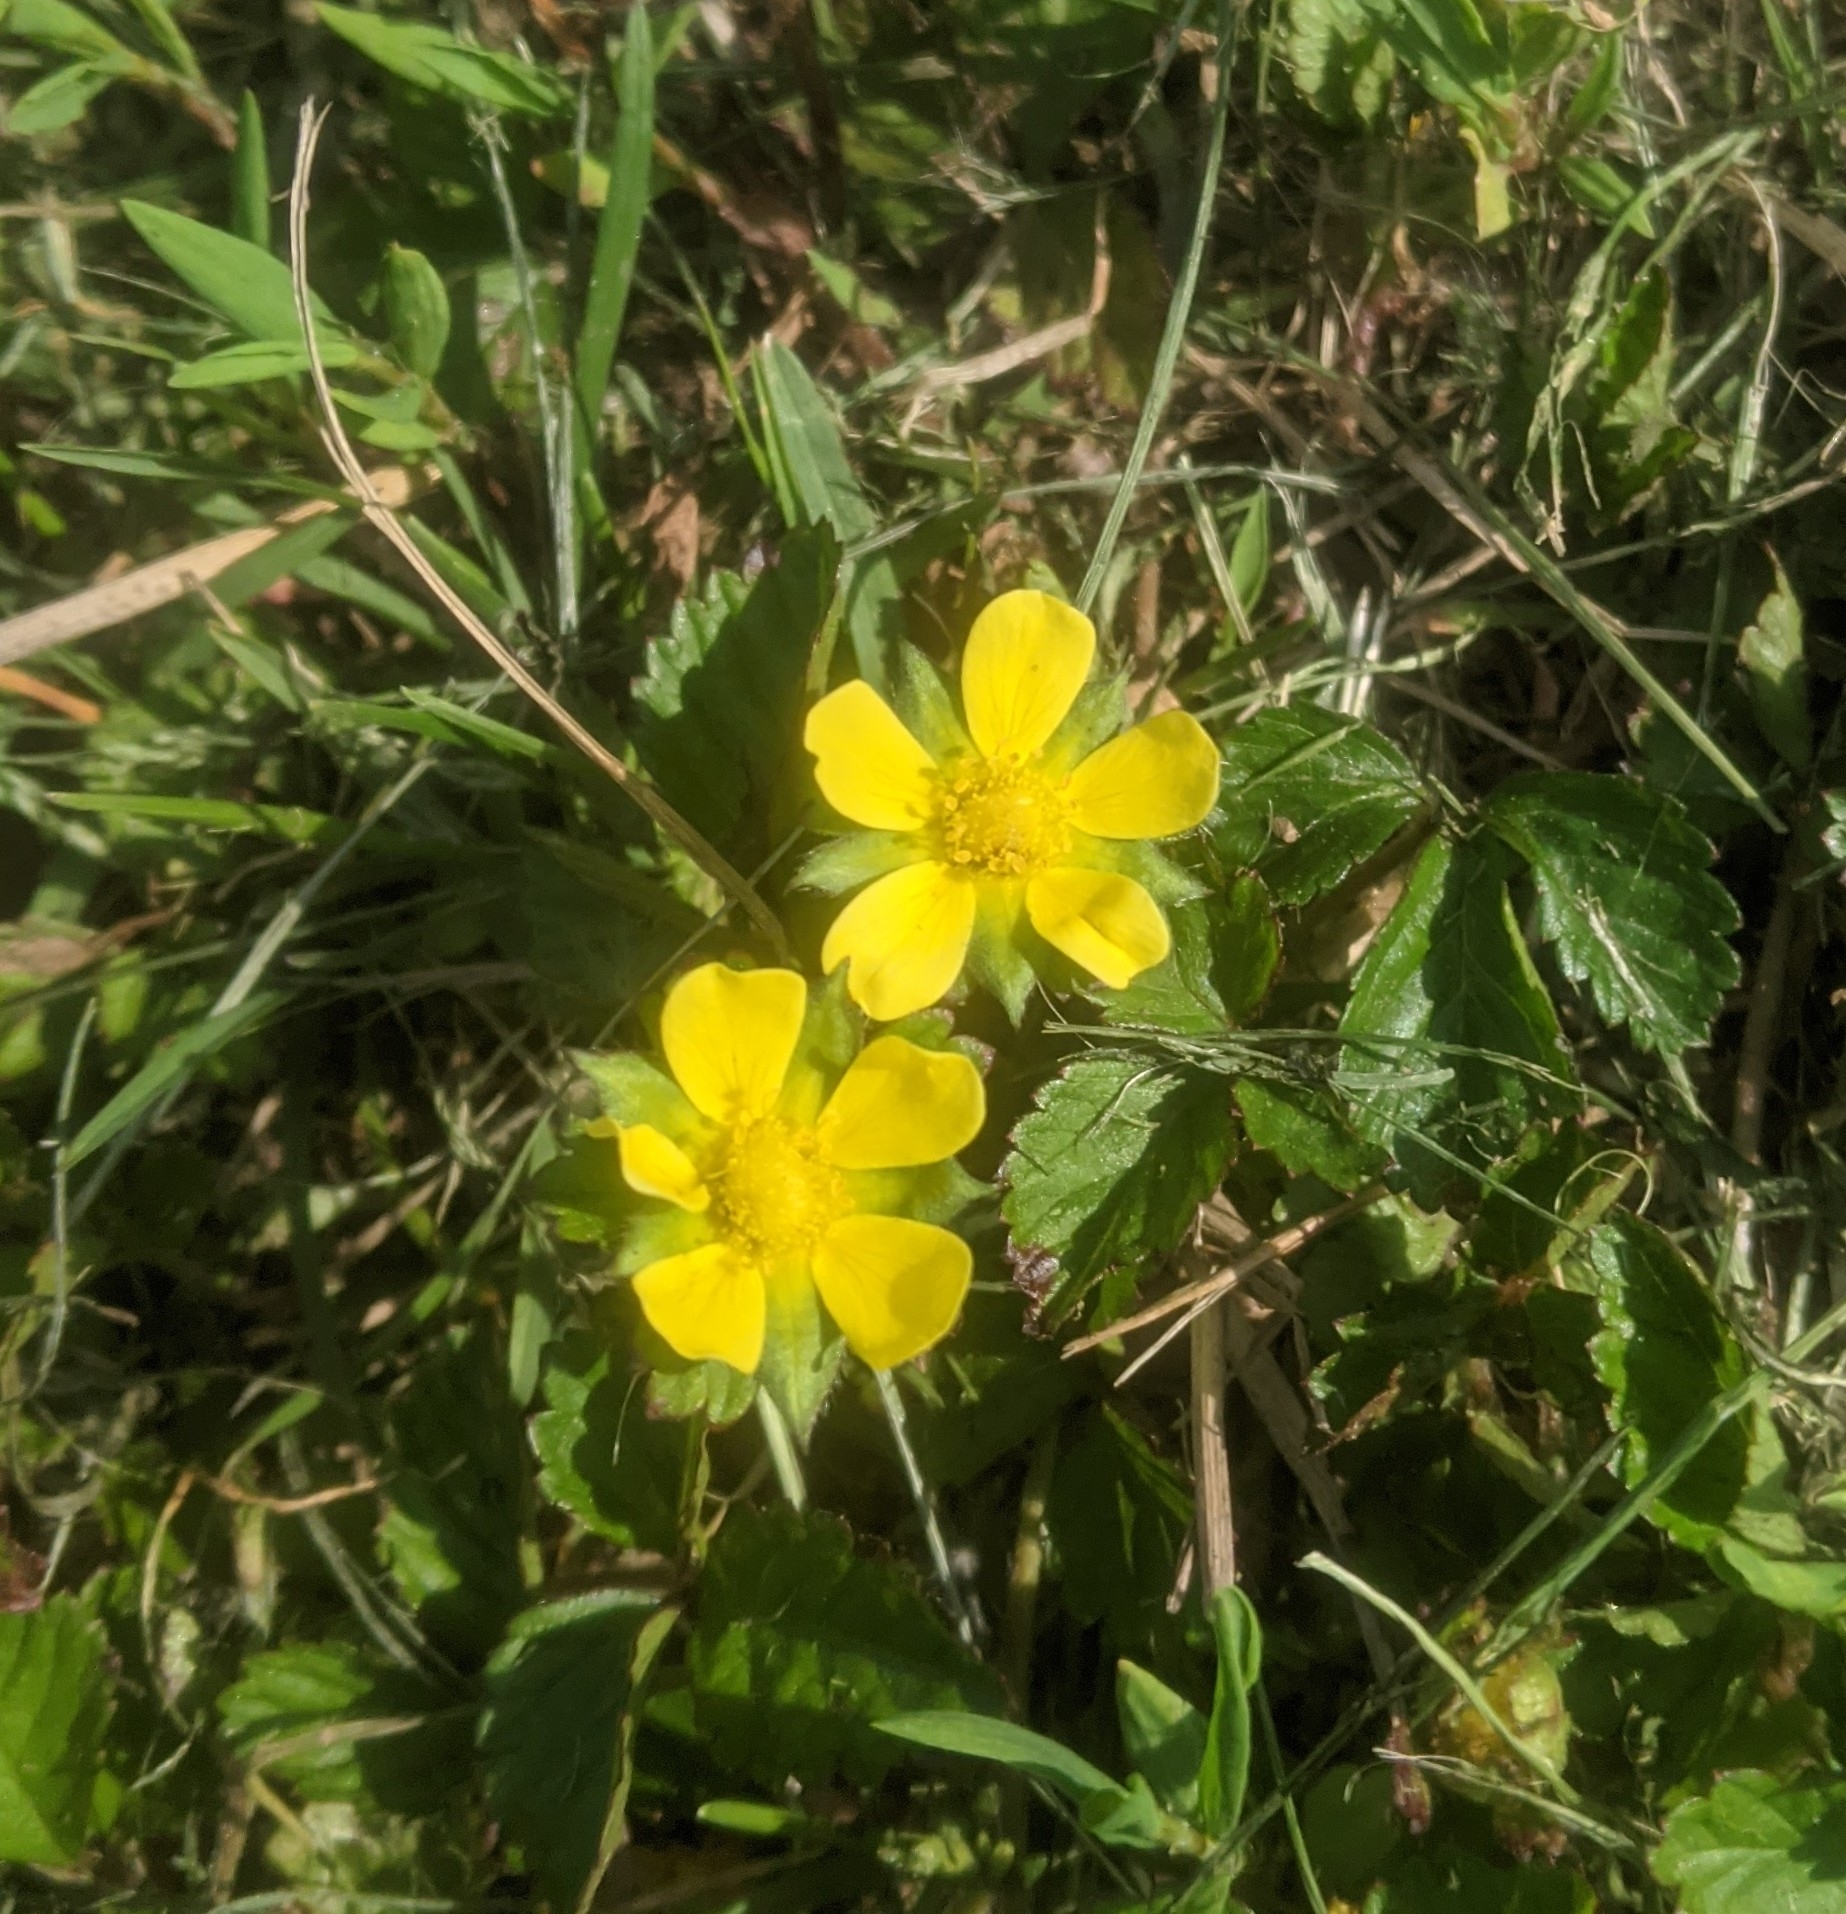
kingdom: Plantae
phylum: Tracheophyta
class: Magnoliopsida
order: Rosales
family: Rosaceae
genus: Potentilla
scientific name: Potentilla indica
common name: Yellow-flowered strawberry
